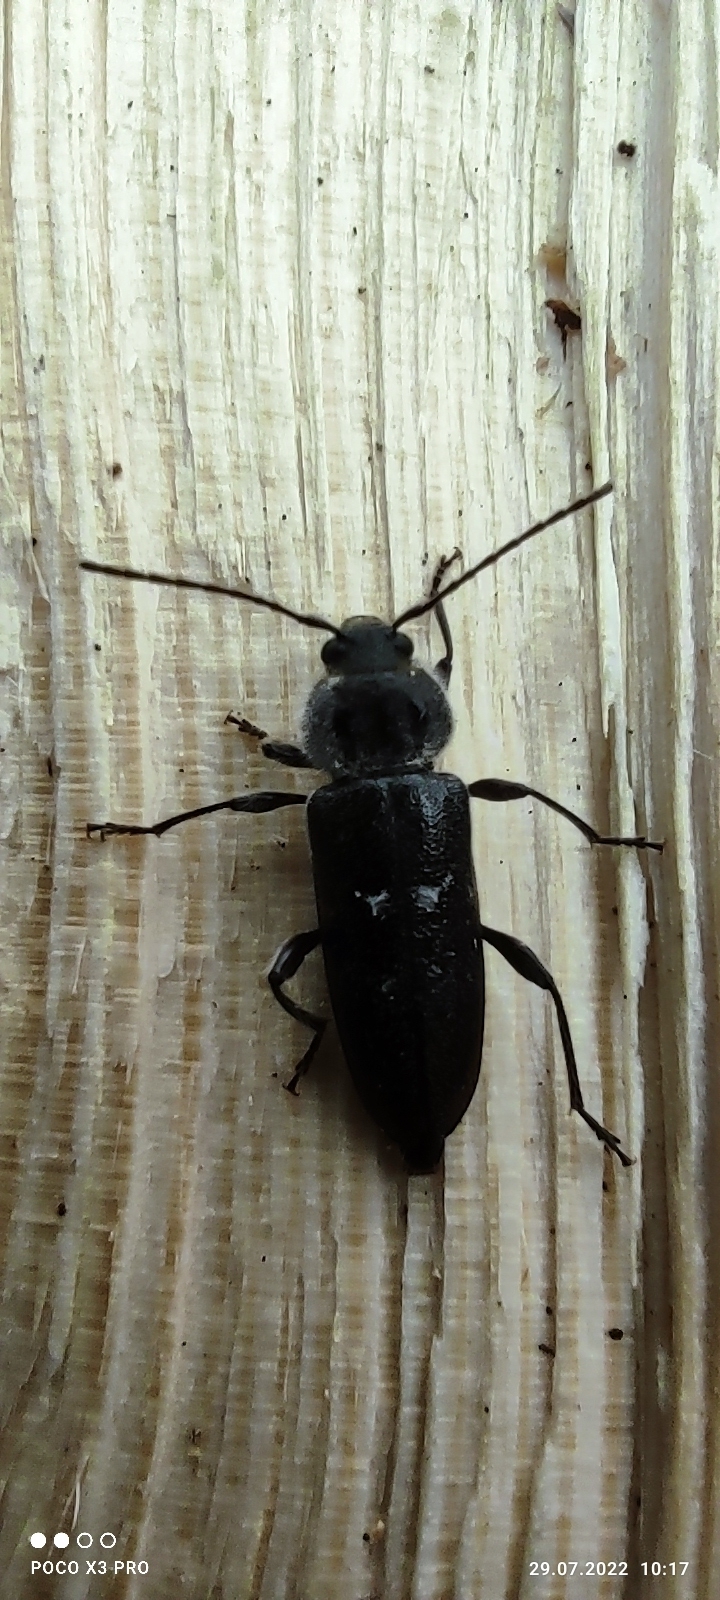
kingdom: Animalia
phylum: Arthropoda
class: Insecta
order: Coleoptera
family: Cerambycidae
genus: Hylotrupes
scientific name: Hylotrupes bajulus
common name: Old house borer
